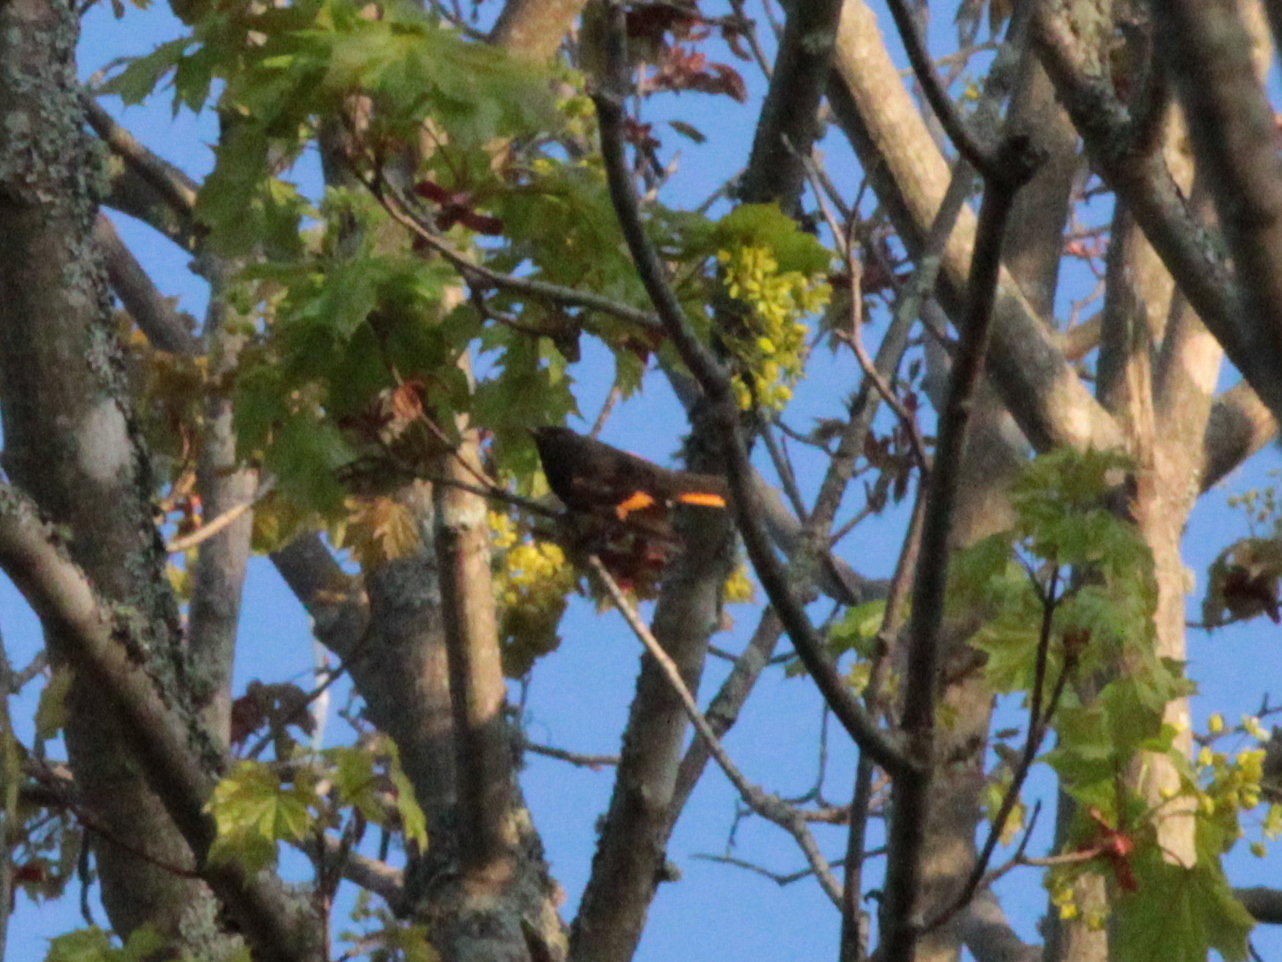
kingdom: Animalia
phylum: Chordata
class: Aves
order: Passeriformes
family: Parulidae
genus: Setophaga
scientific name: Setophaga ruticilla
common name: American redstart
